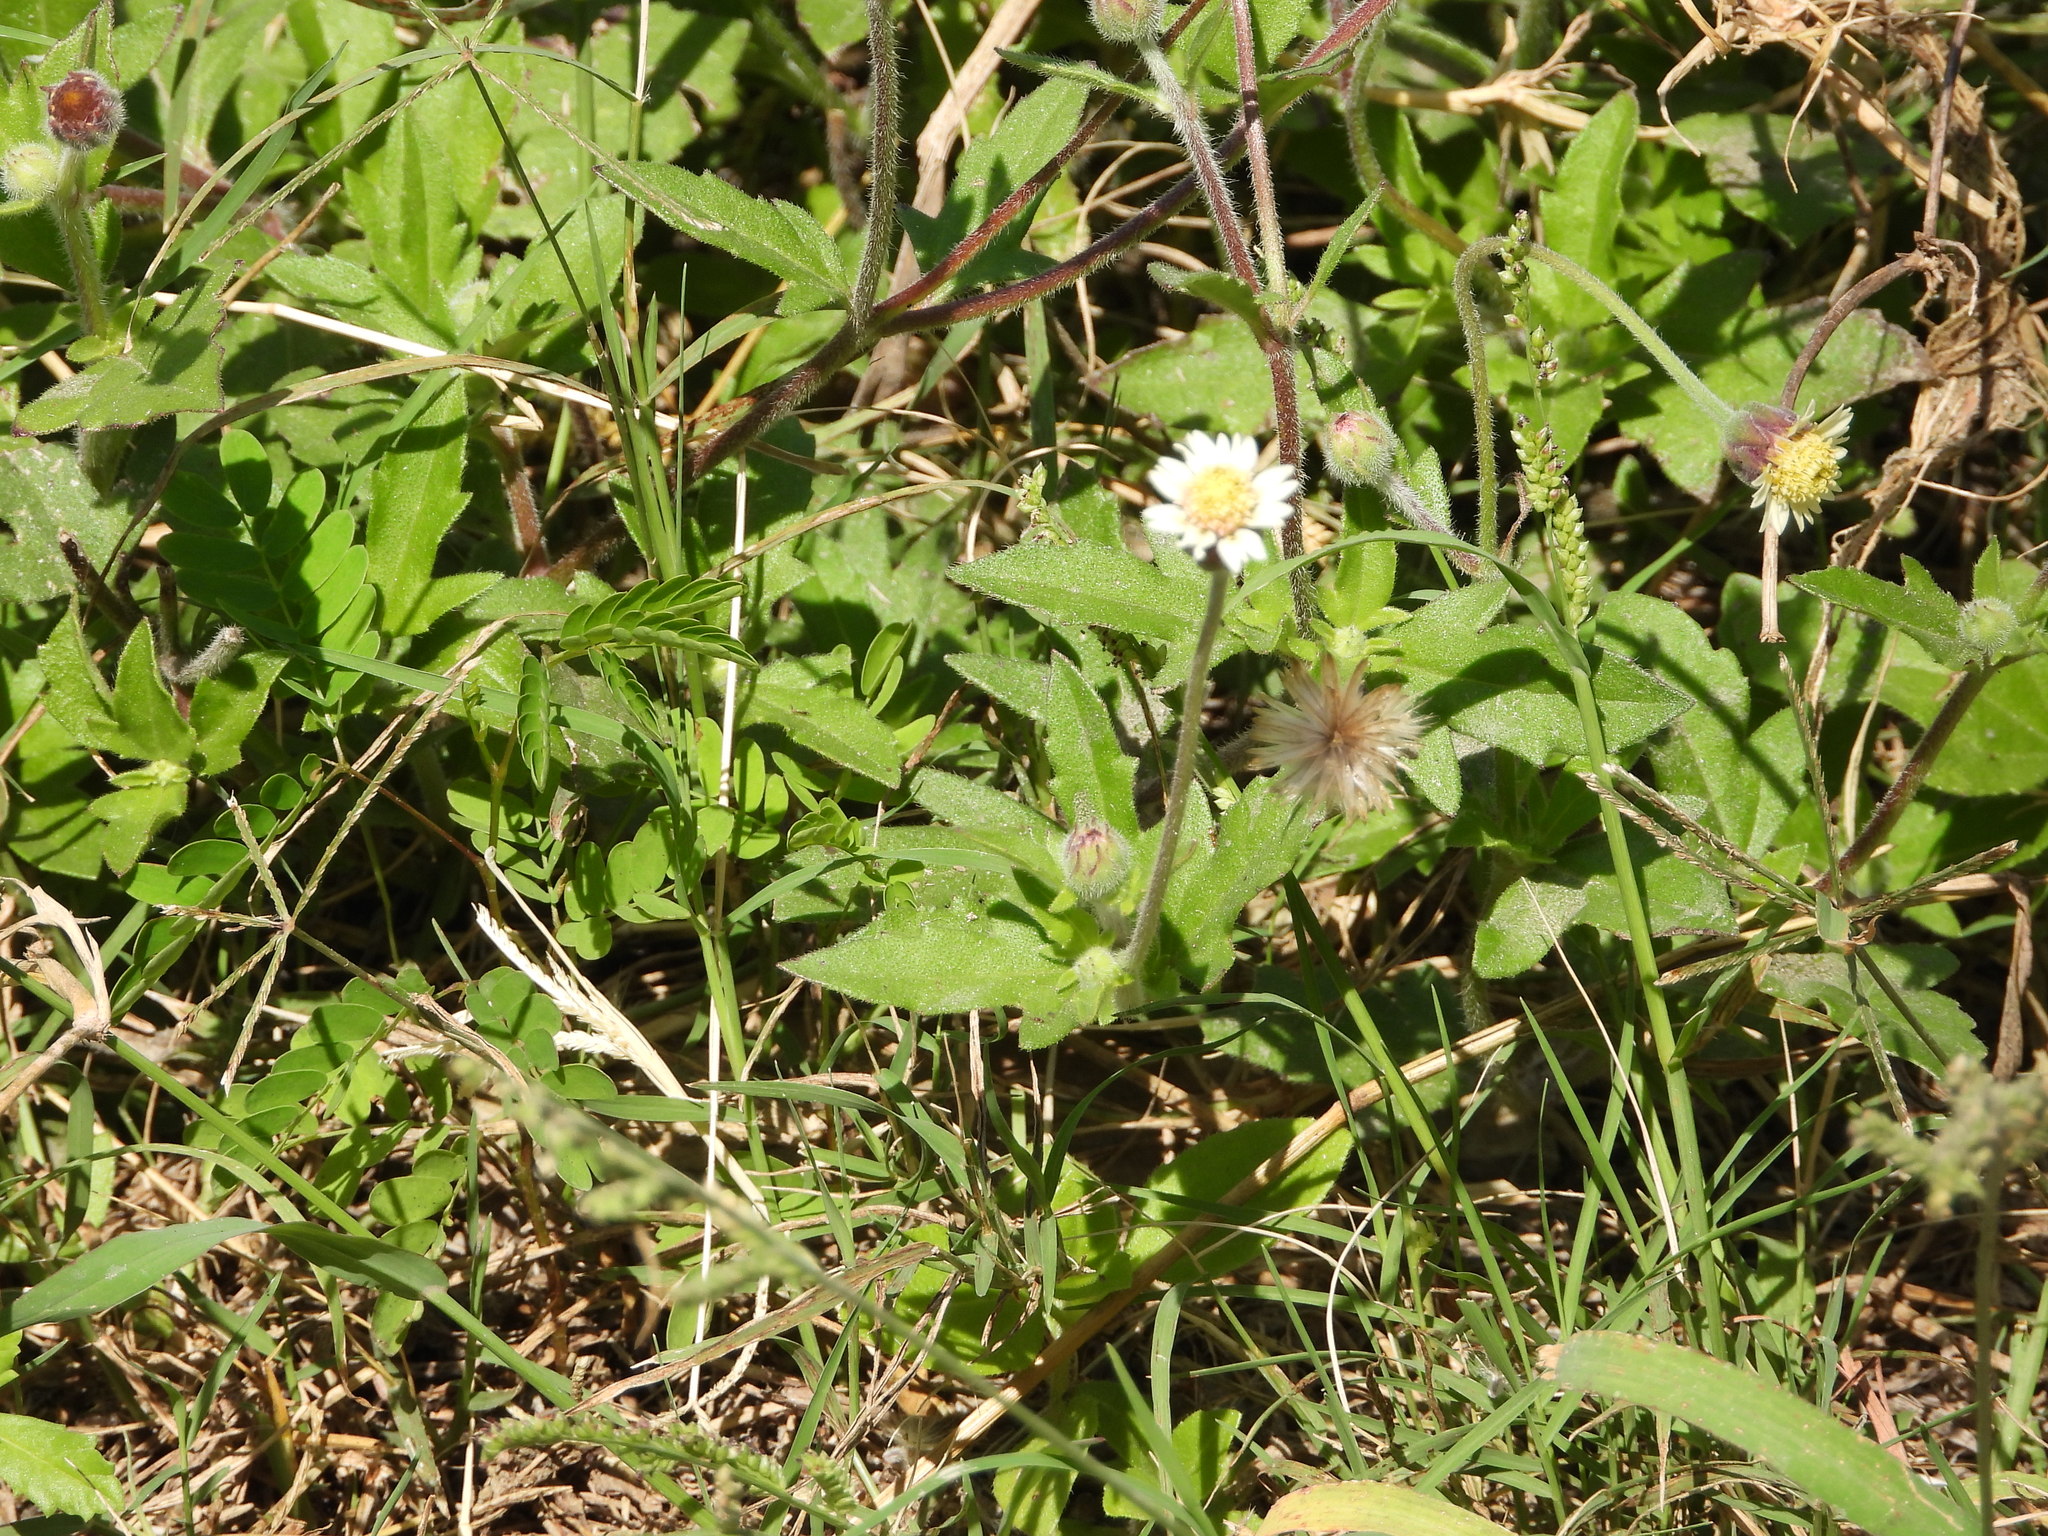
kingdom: Plantae
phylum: Tracheophyta
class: Magnoliopsida
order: Asterales
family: Asteraceae
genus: Tridax
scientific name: Tridax procumbens
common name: Coatbuttons
